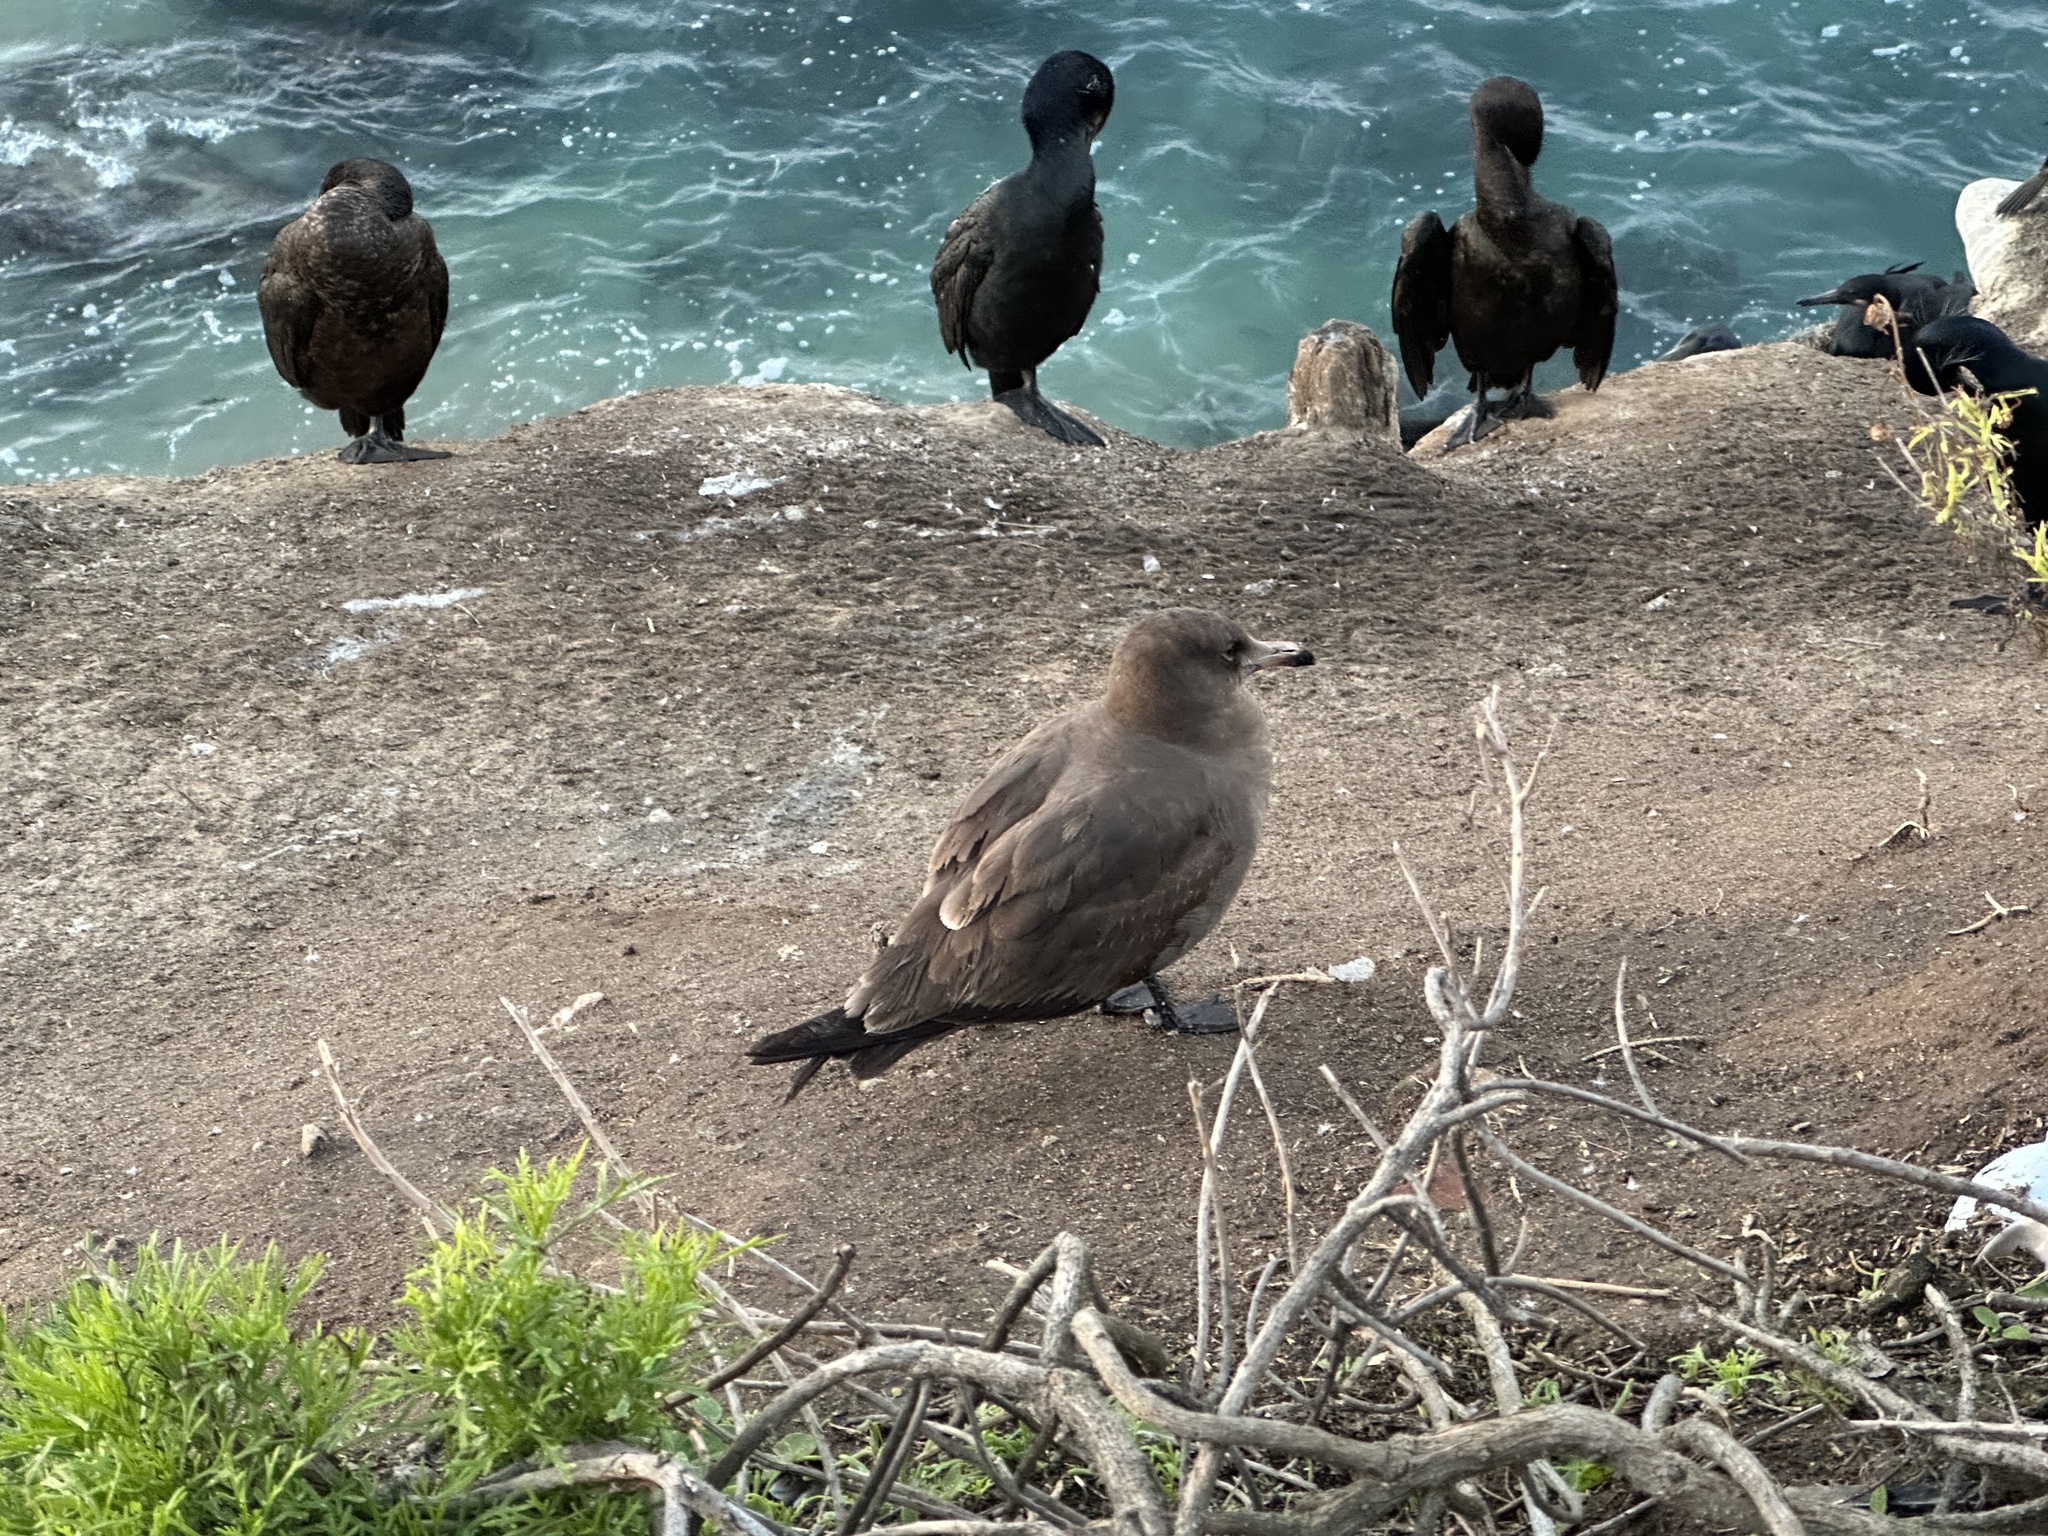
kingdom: Animalia
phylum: Chordata
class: Aves
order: Charadriiformes
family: Laridae
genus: Larus
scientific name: Larus heermanni
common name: Heermann's gull
